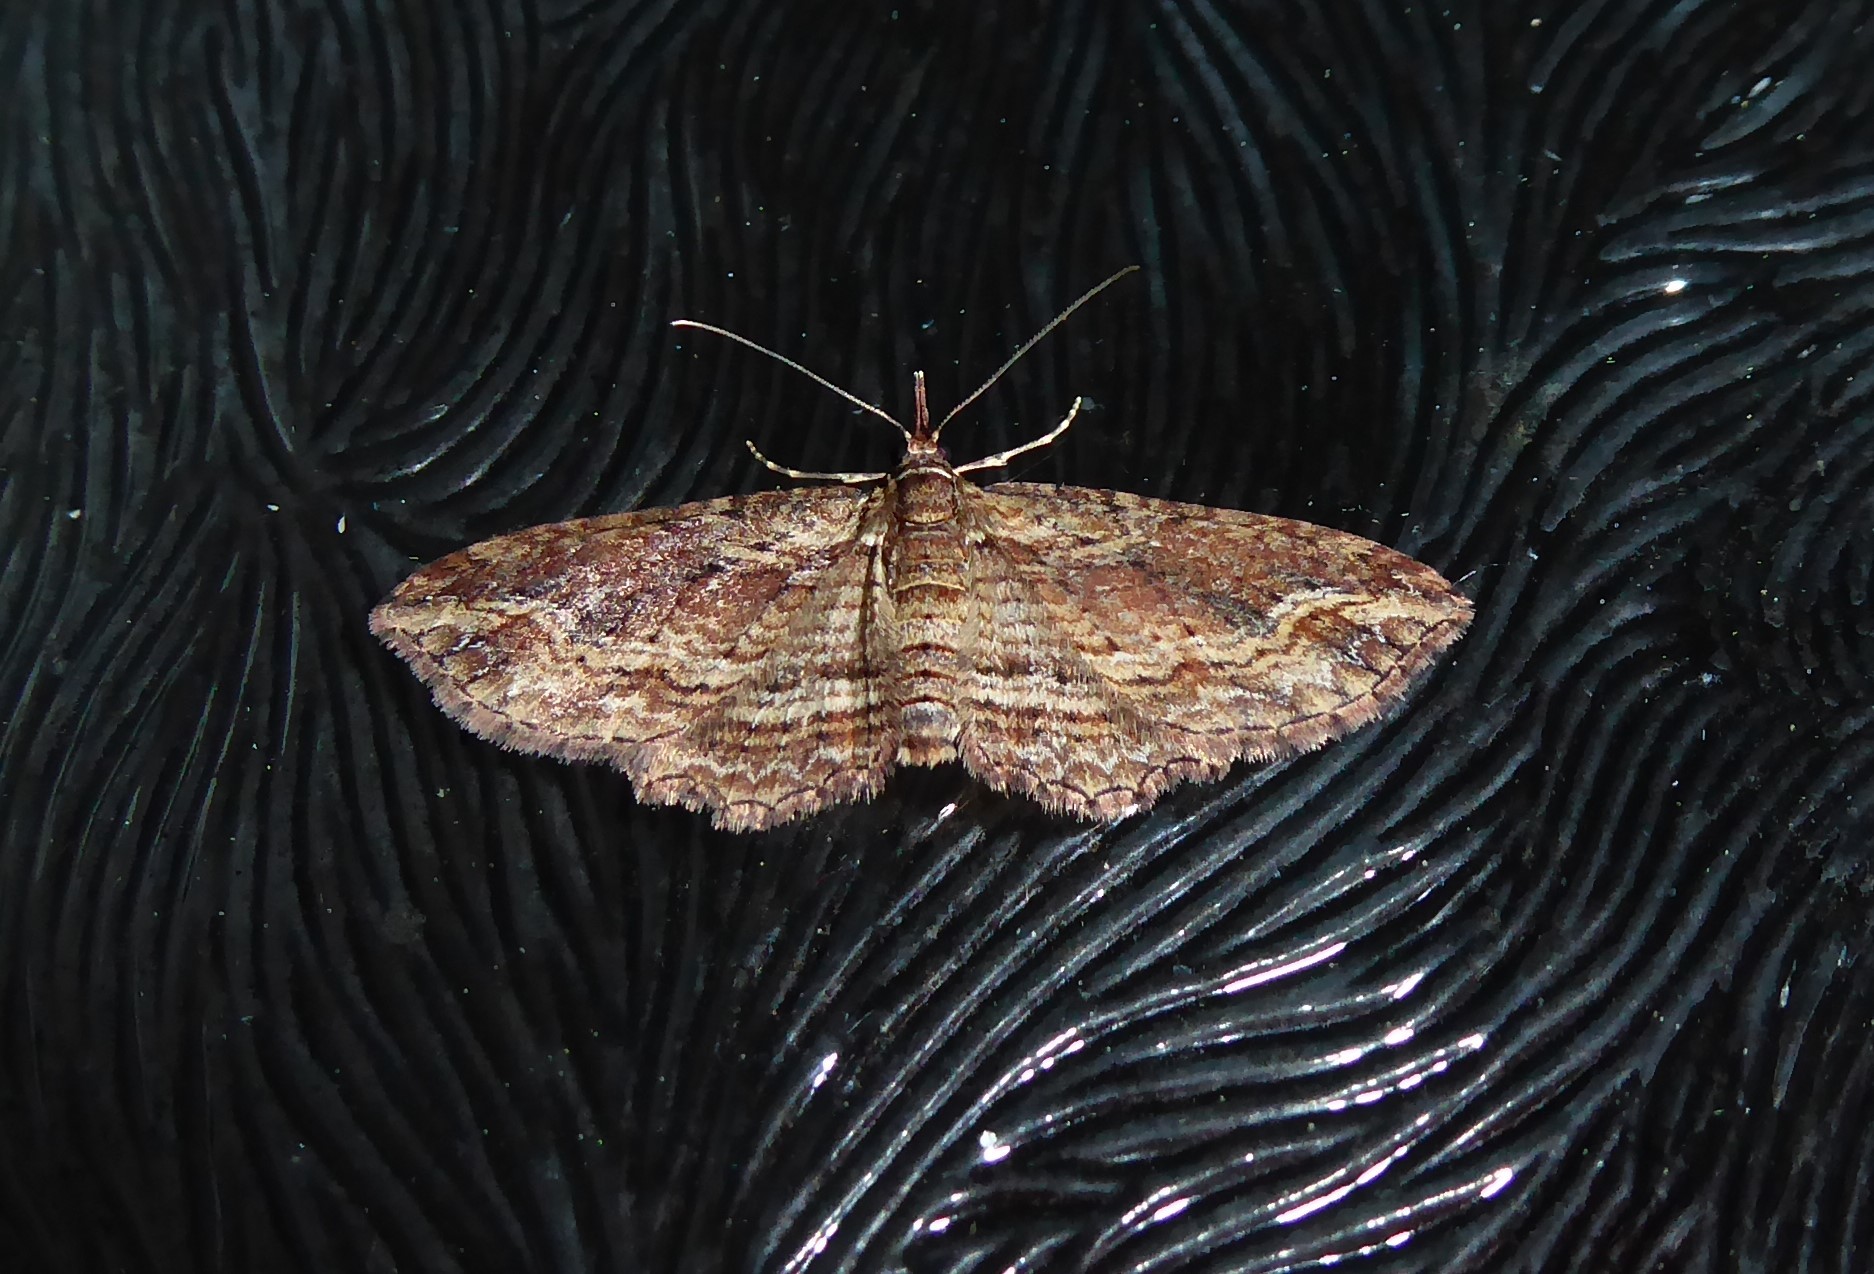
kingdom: Animalia
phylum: Arthropoda
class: Insecta
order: Lepidoptera
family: Geometridae
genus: Chloroclystis
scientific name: Chloroclystis filata
